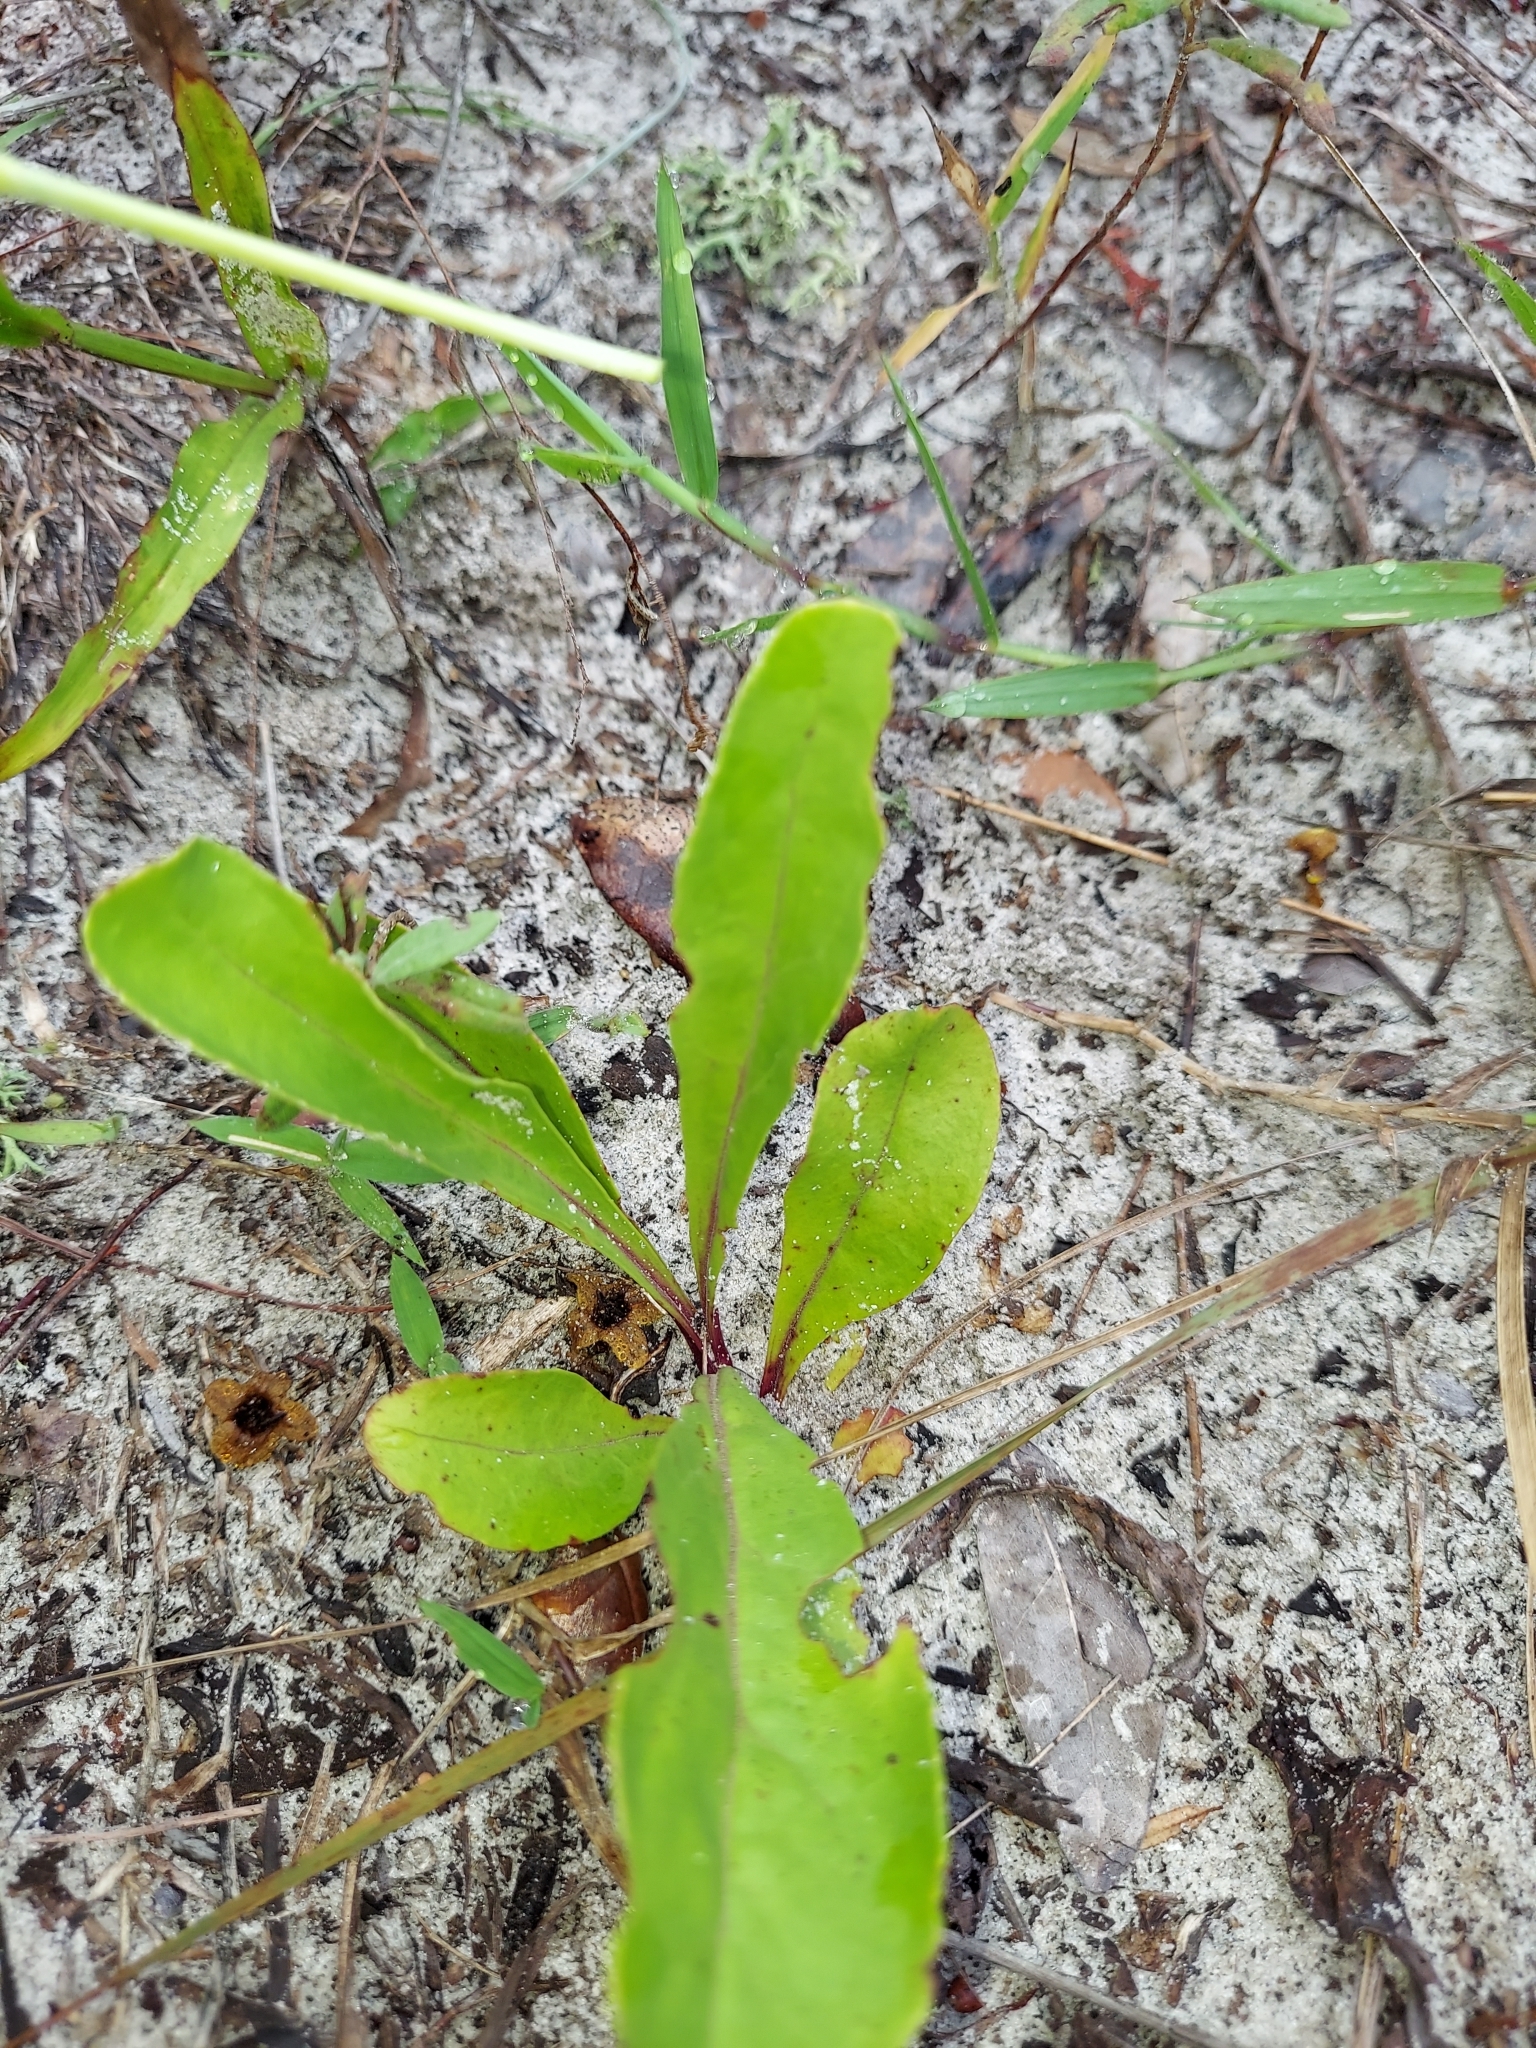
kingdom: Plantae
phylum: Tracheophyta
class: Magnoliopsida
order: Lamiales
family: Plantaginaceae
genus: Penstemon
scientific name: Penstemon multiflorus
